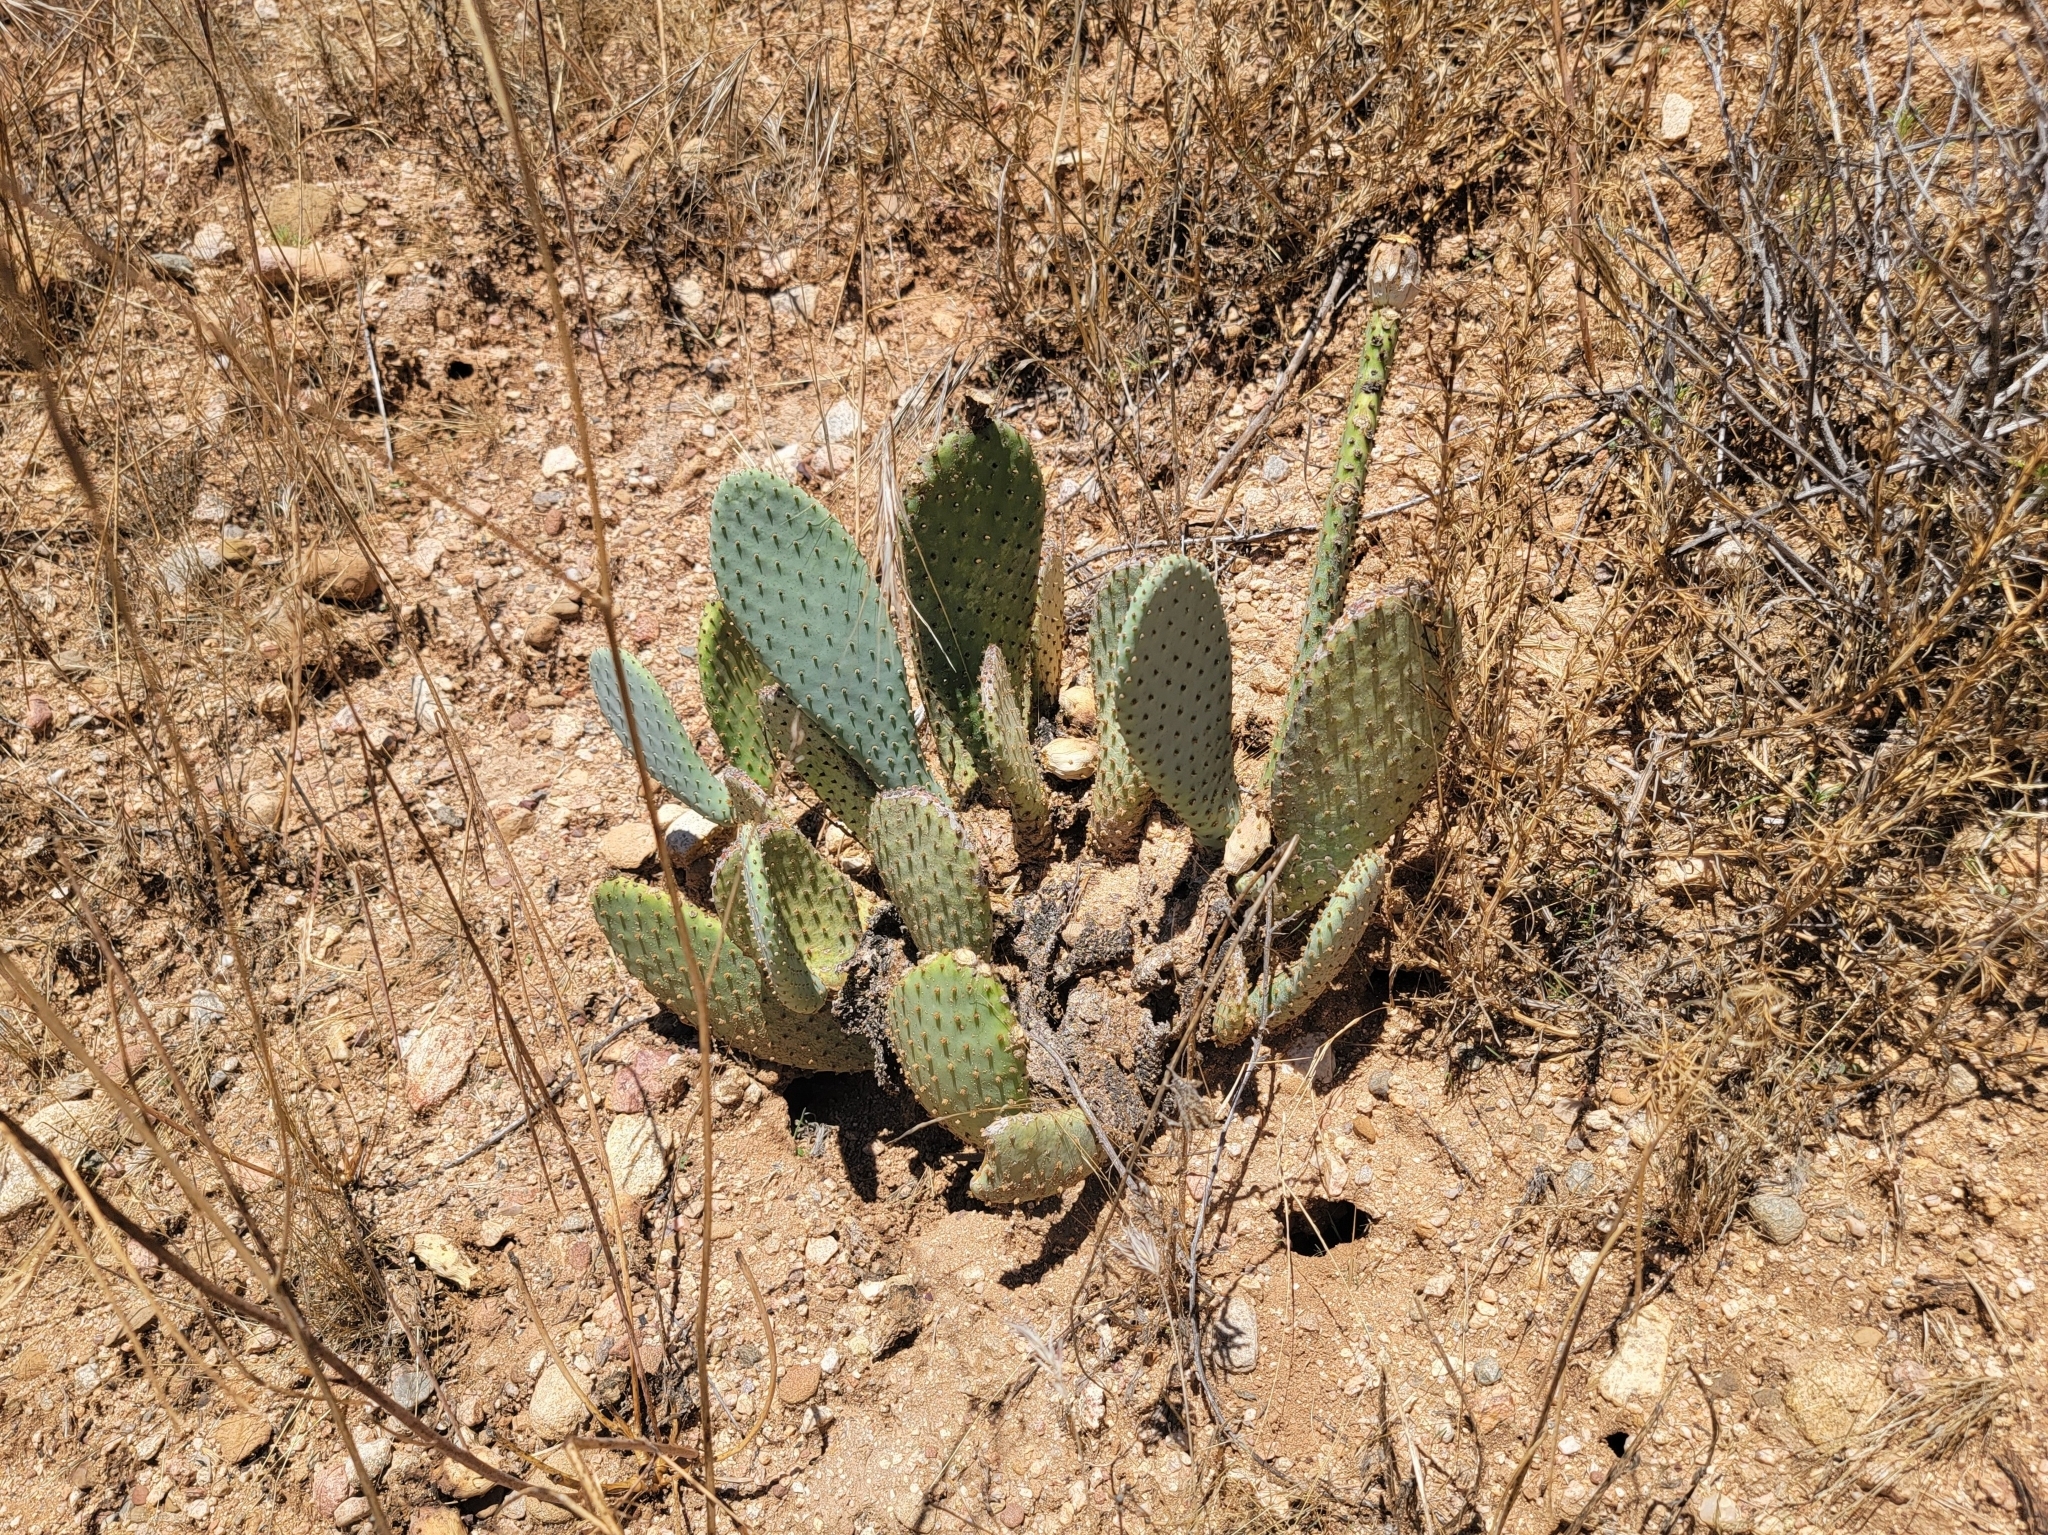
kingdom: Plantae
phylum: Tracheophyta
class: Magnoliopsida
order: Caryophyllales
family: Cactaceae
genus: Opuntia
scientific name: Opuntia basilaris
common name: Beavertail prickly-pear
